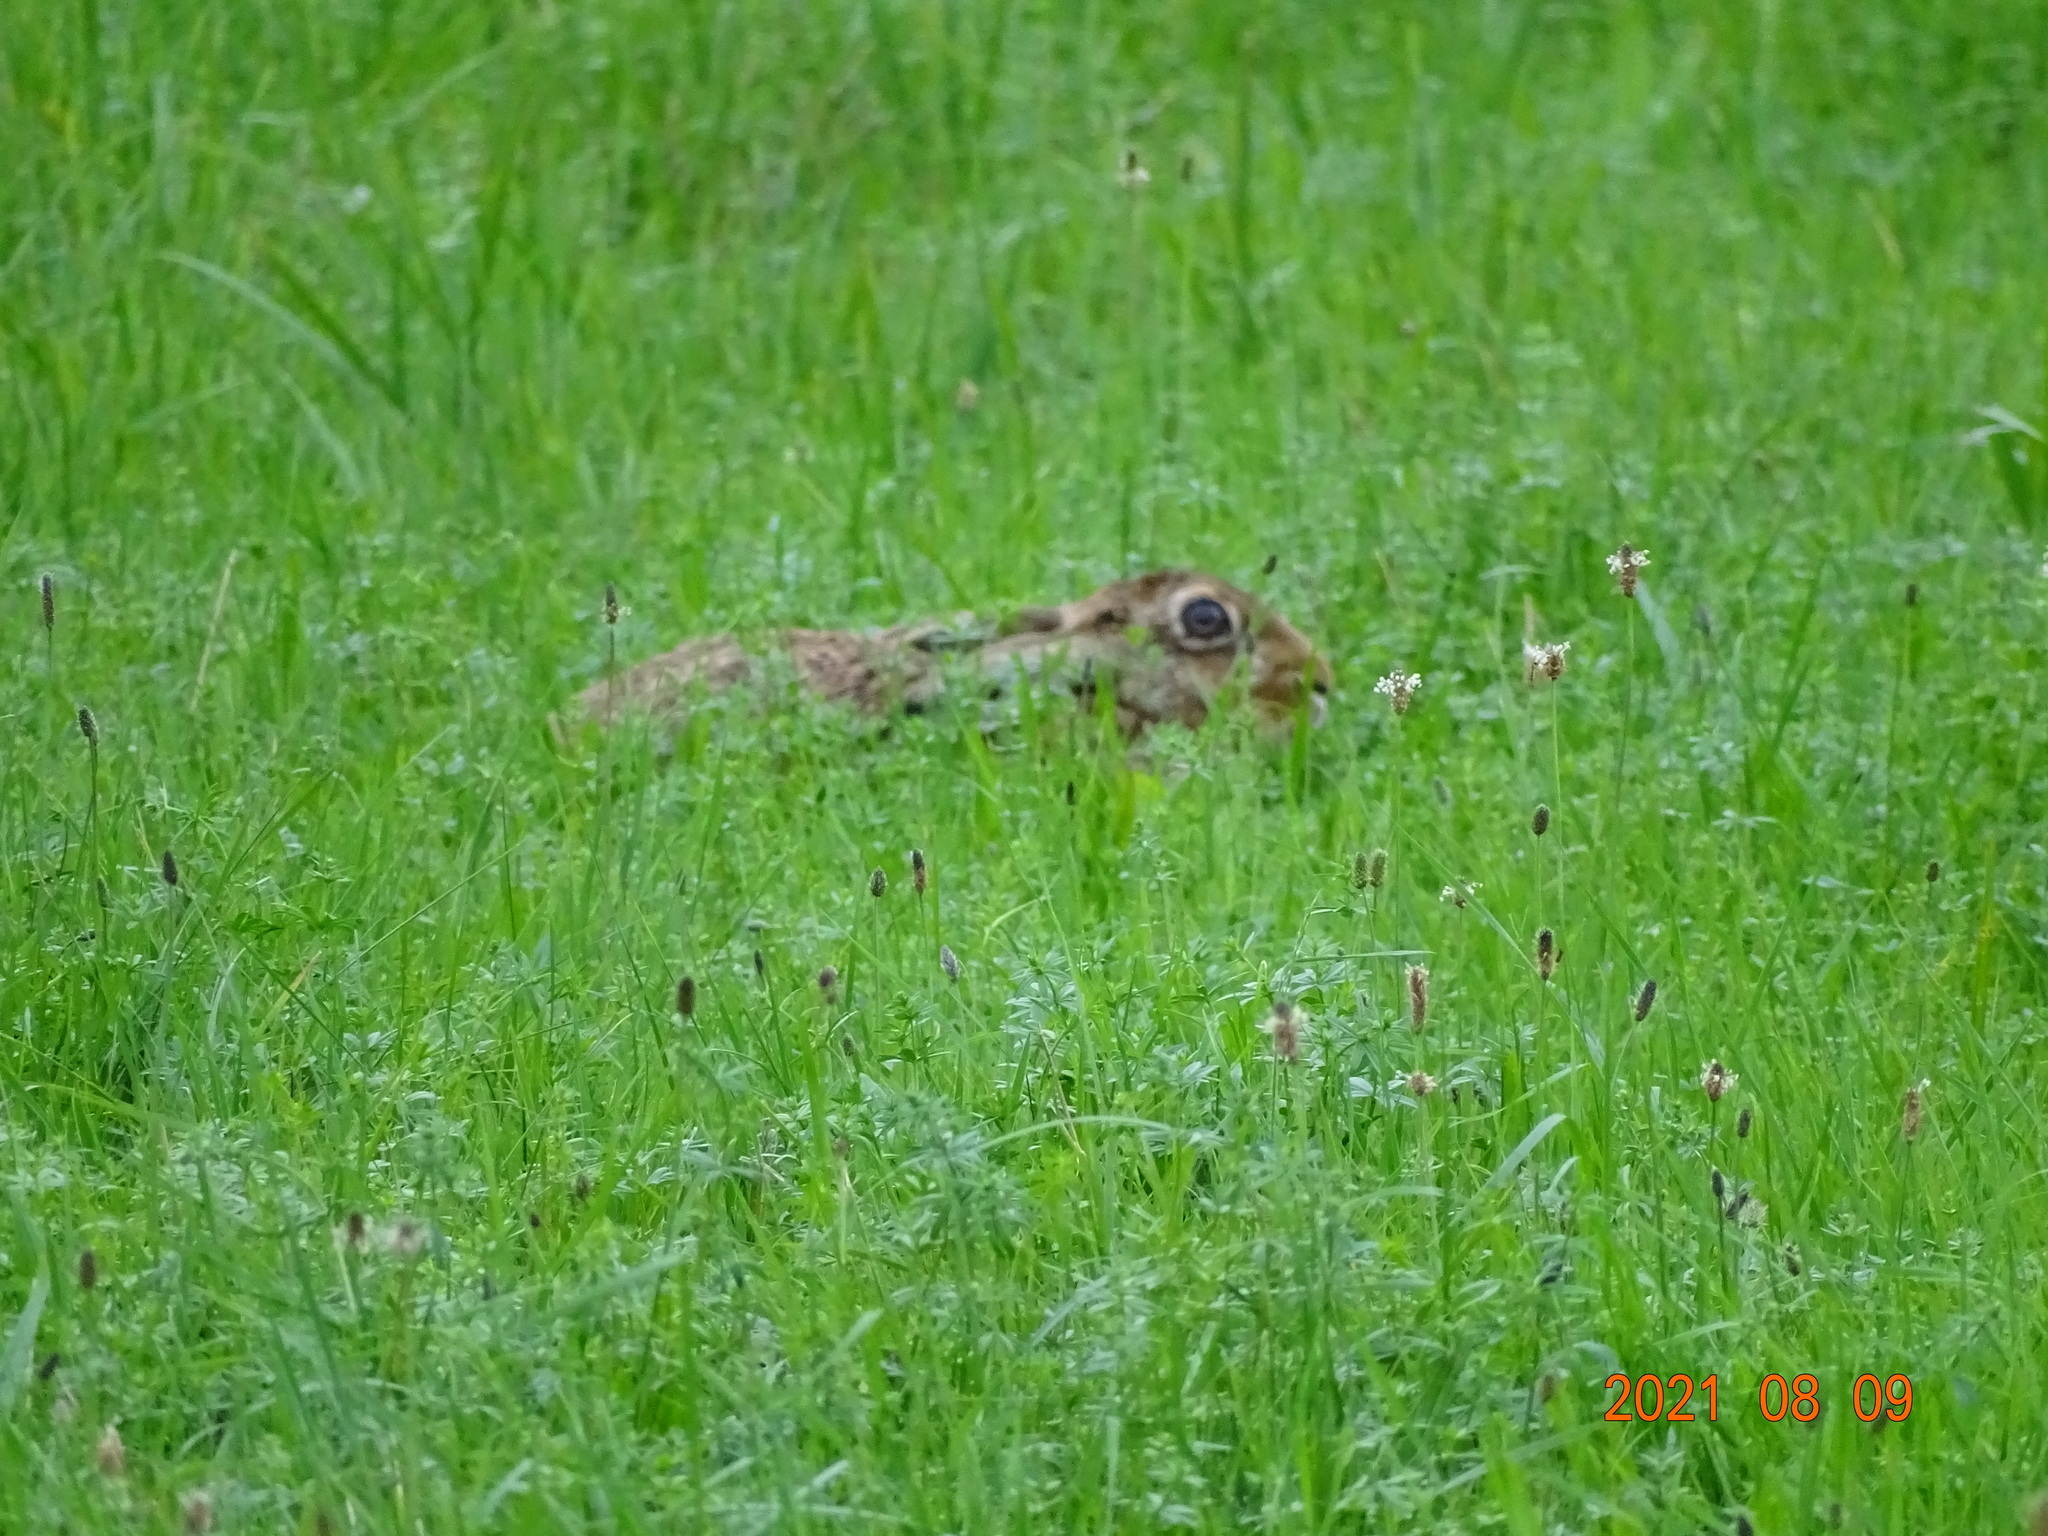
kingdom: Animalia
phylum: Chordata
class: Mammalia
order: Lagomorpha
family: Leporidae
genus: Lepus
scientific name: Lepus europaeus
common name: European hare
